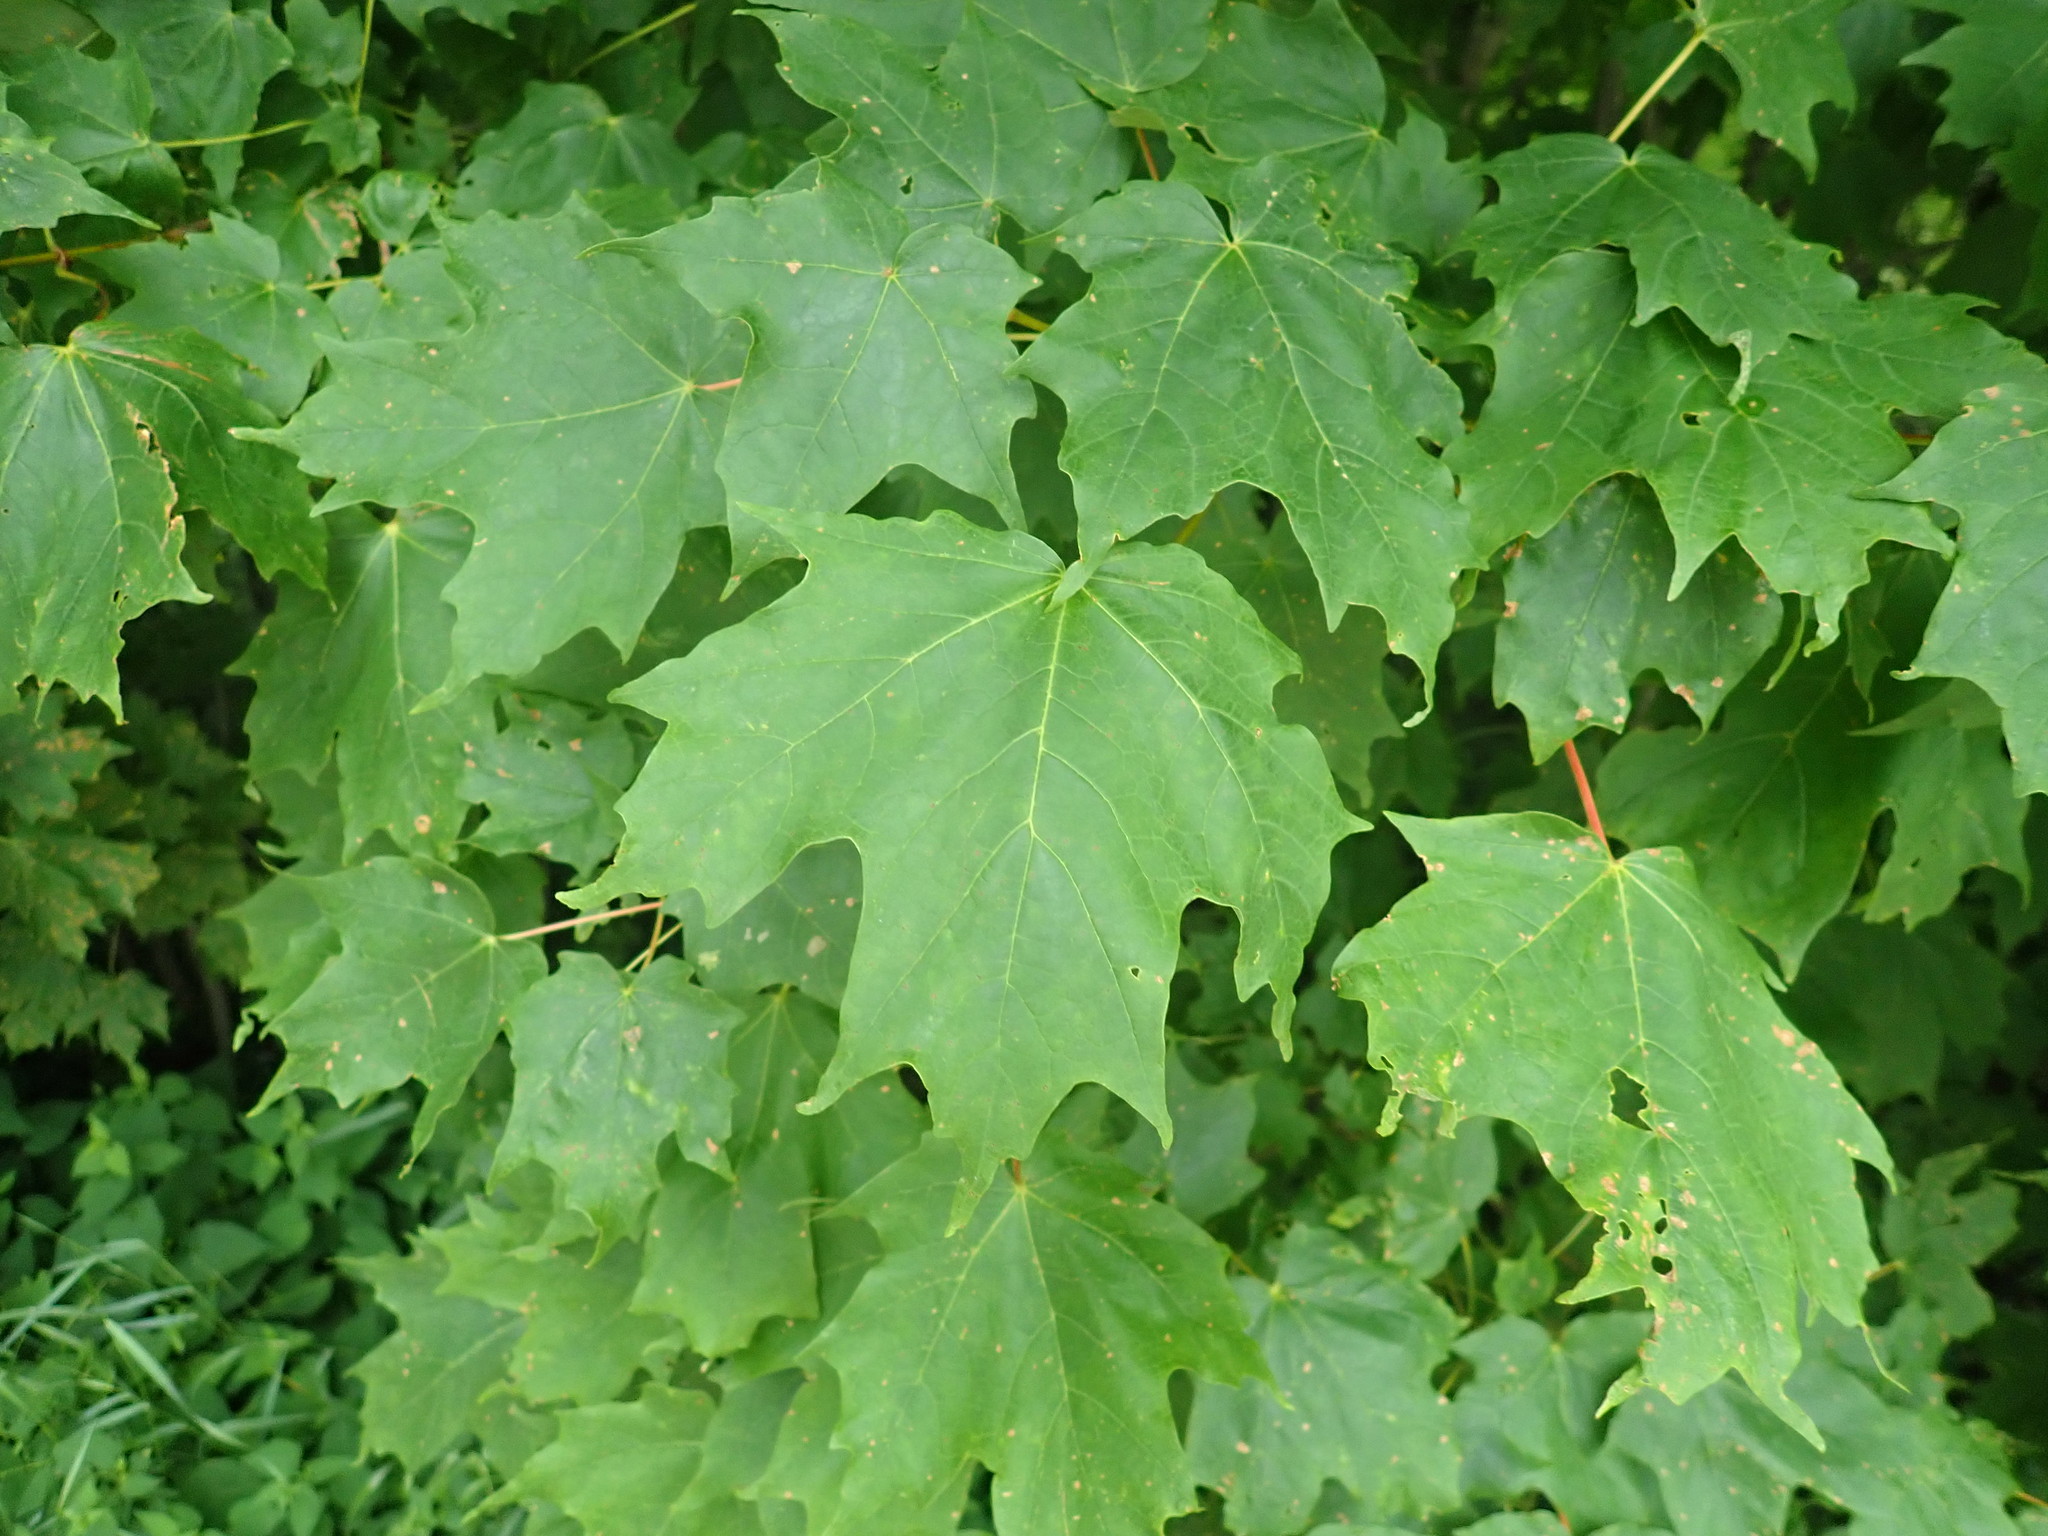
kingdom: Plantae
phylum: Tracheophyta
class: Magnoliopsida
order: Sapindales
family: Sapindaceae
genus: Acer
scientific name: Acer saccharum
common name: Sugar maple
